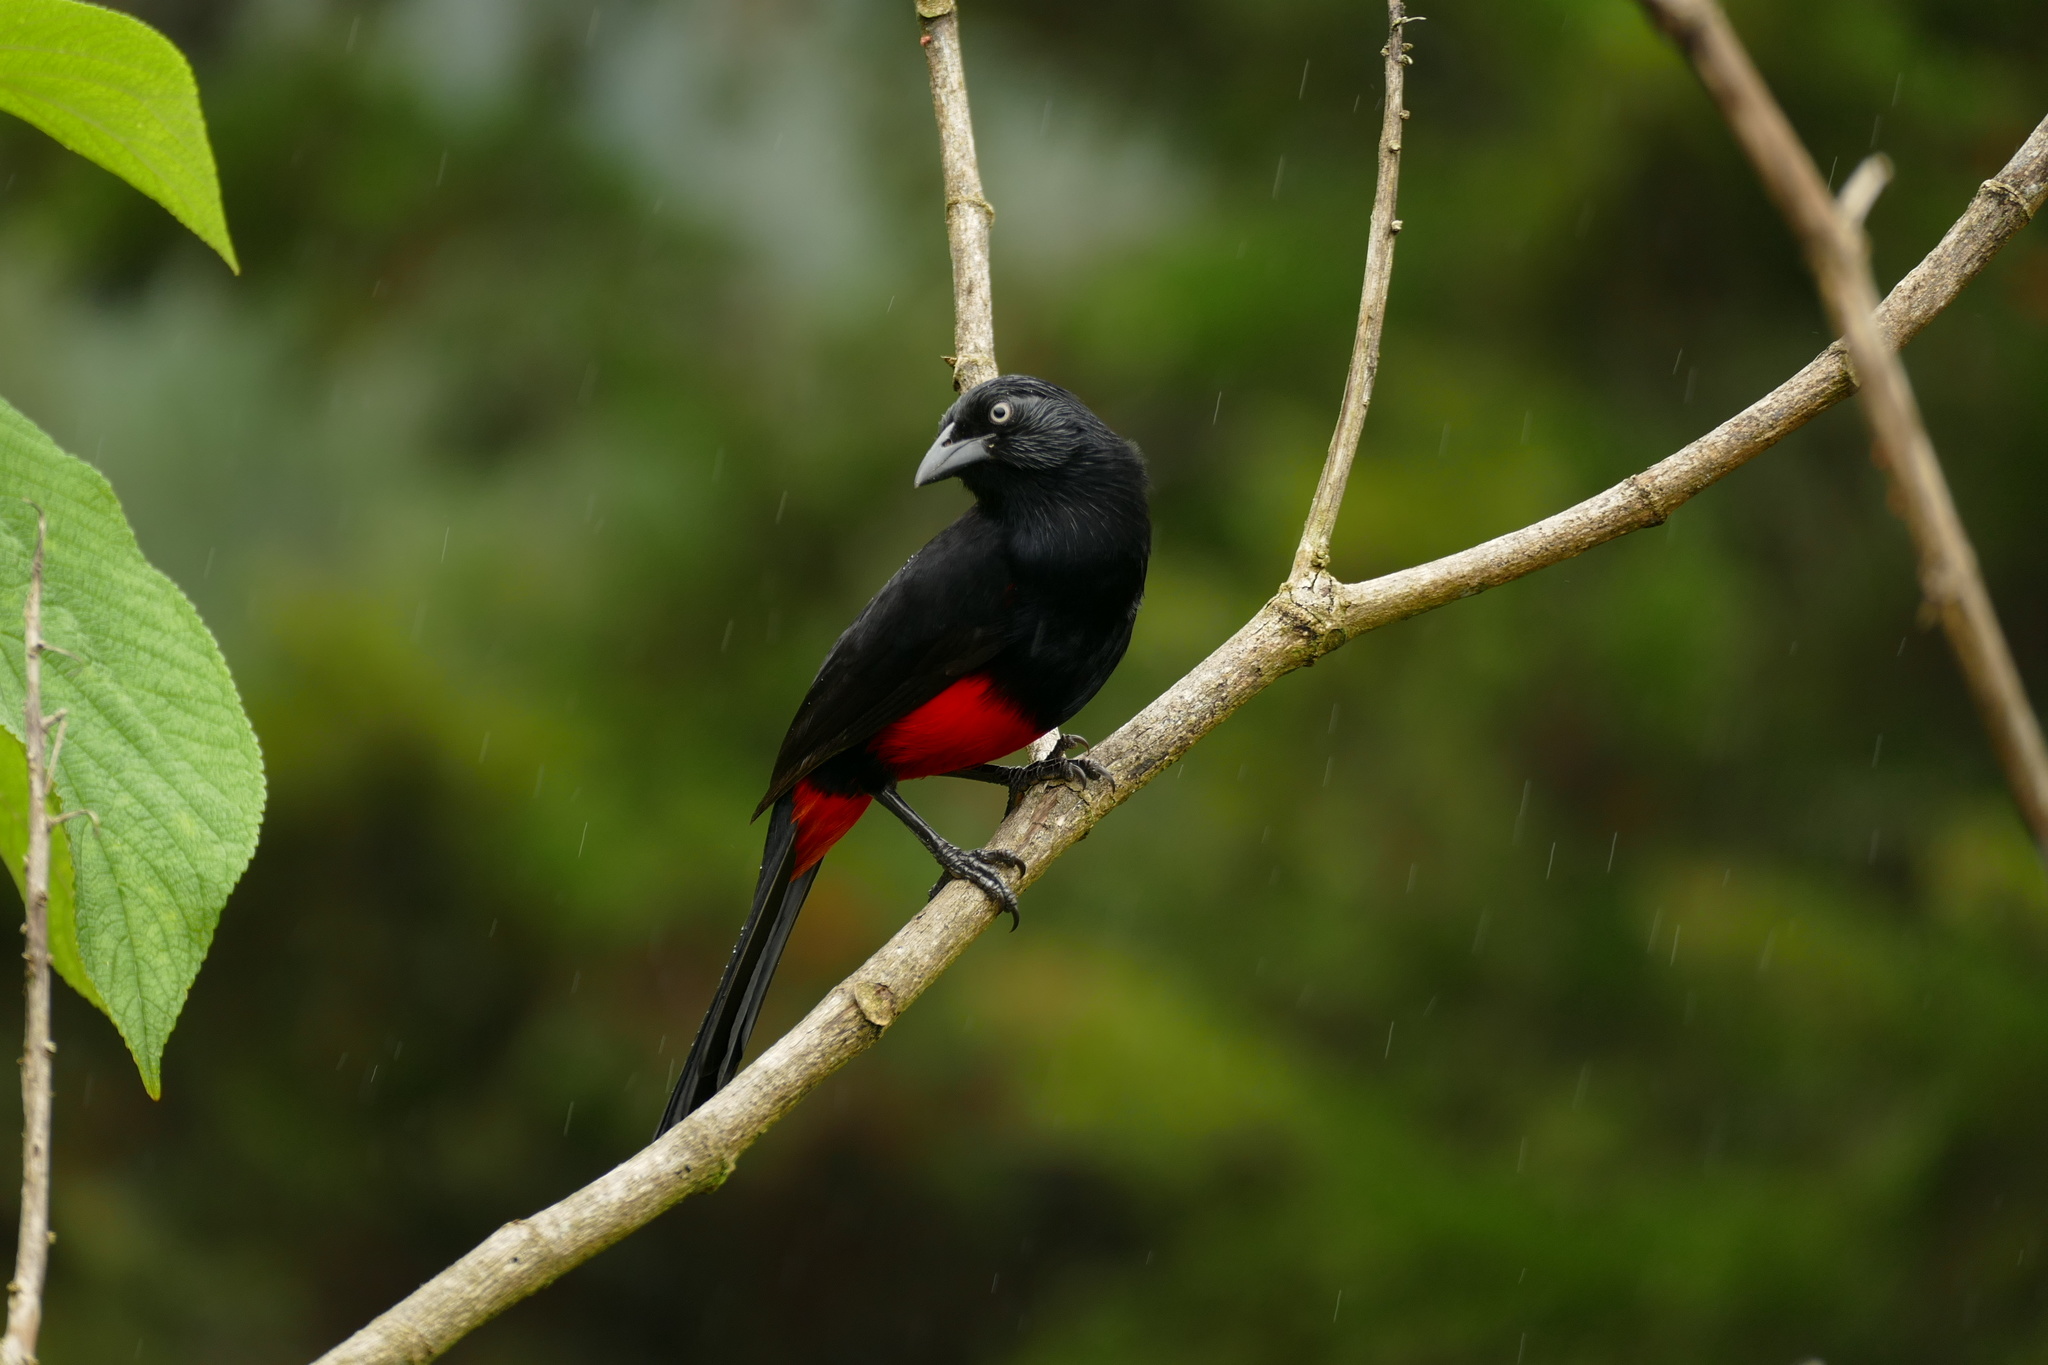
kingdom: Animalia
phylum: Chordata
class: Aves
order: Passeriformes
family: Icteridae
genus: Hypopyrrhus
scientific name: Hypopyrrhus pyrohypogaster
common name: Red-bellied grackle
